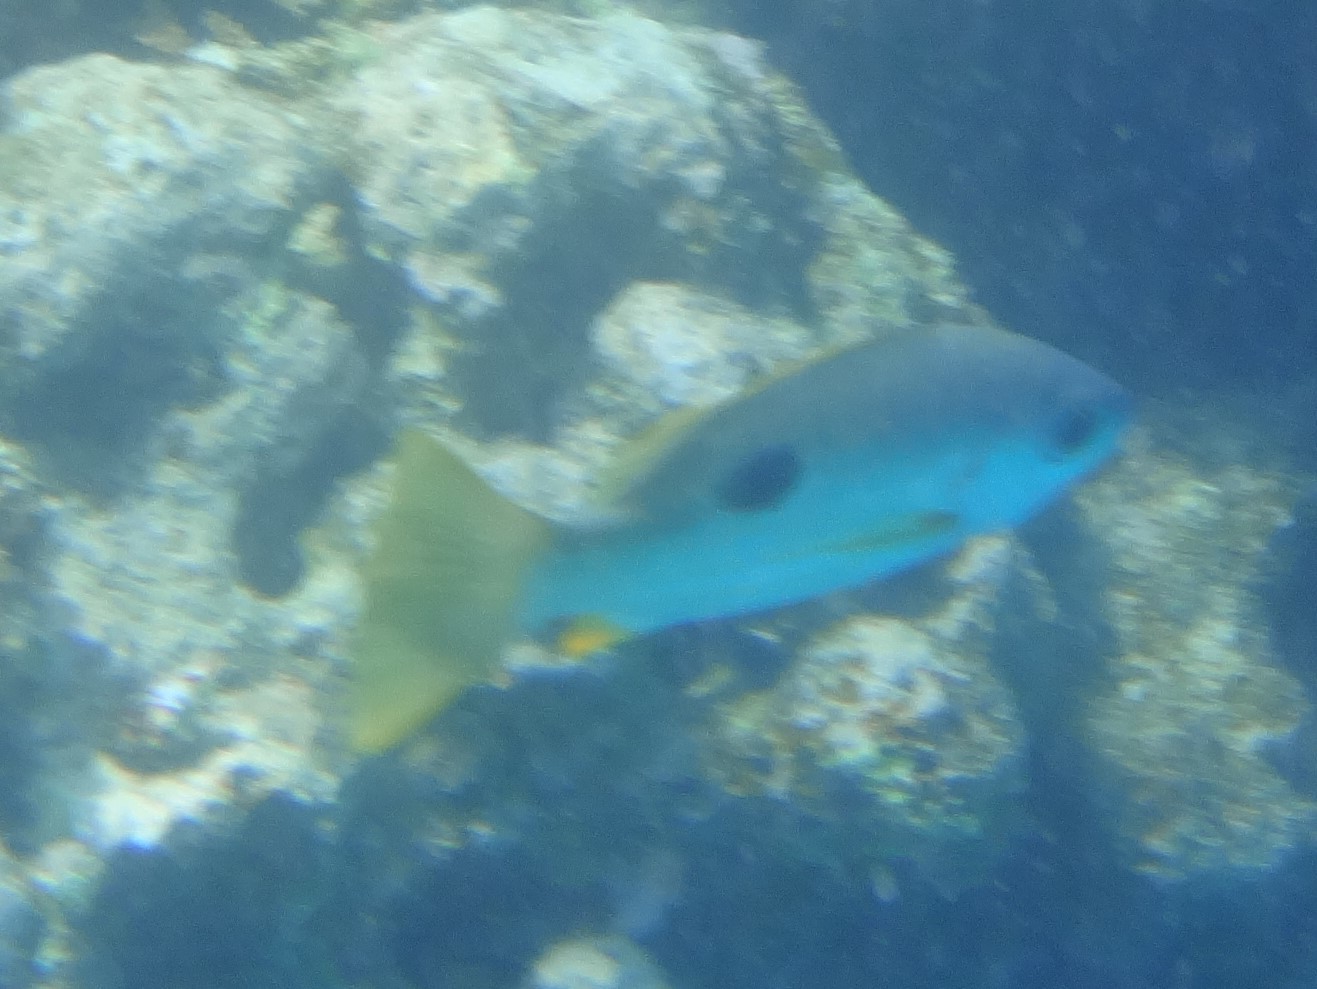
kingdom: Animalia
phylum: Chordata
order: Perciformes
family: Lutjanidae
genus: Lutjanus
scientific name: Lutjanus ehrenbergii
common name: Blackspot snapper
